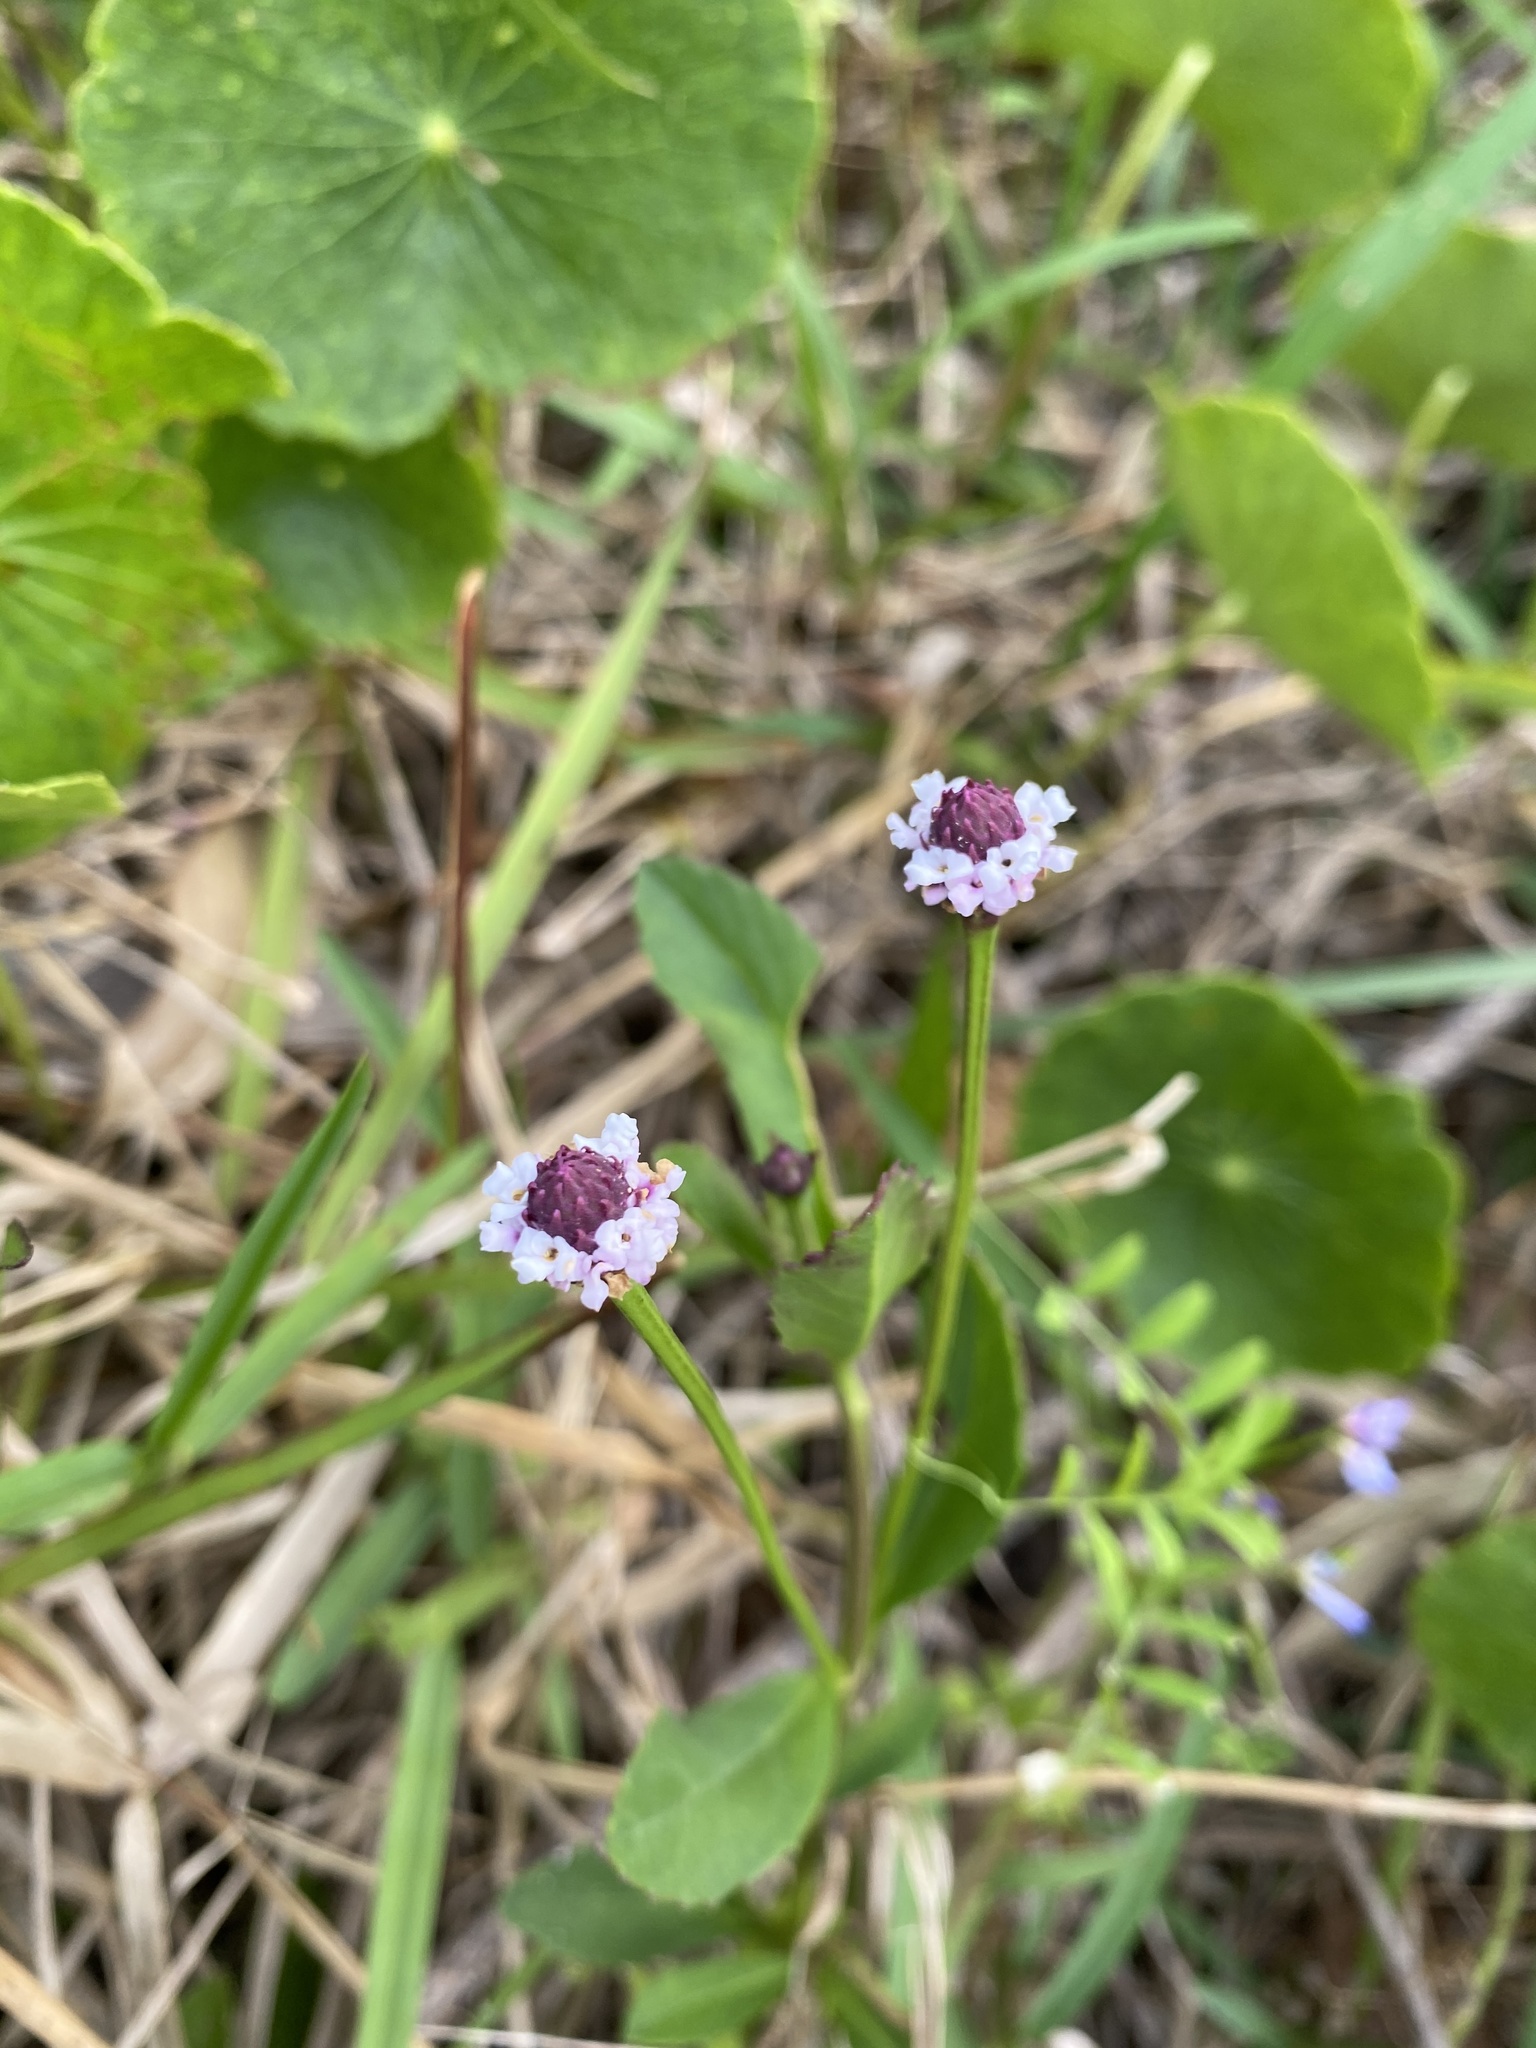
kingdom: Plantae
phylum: Tracheophyta
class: Magnoliopsida
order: Lamiales
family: Verbenaceae
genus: Phyla
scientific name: Phyla nodiflora
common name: Frogfruit
